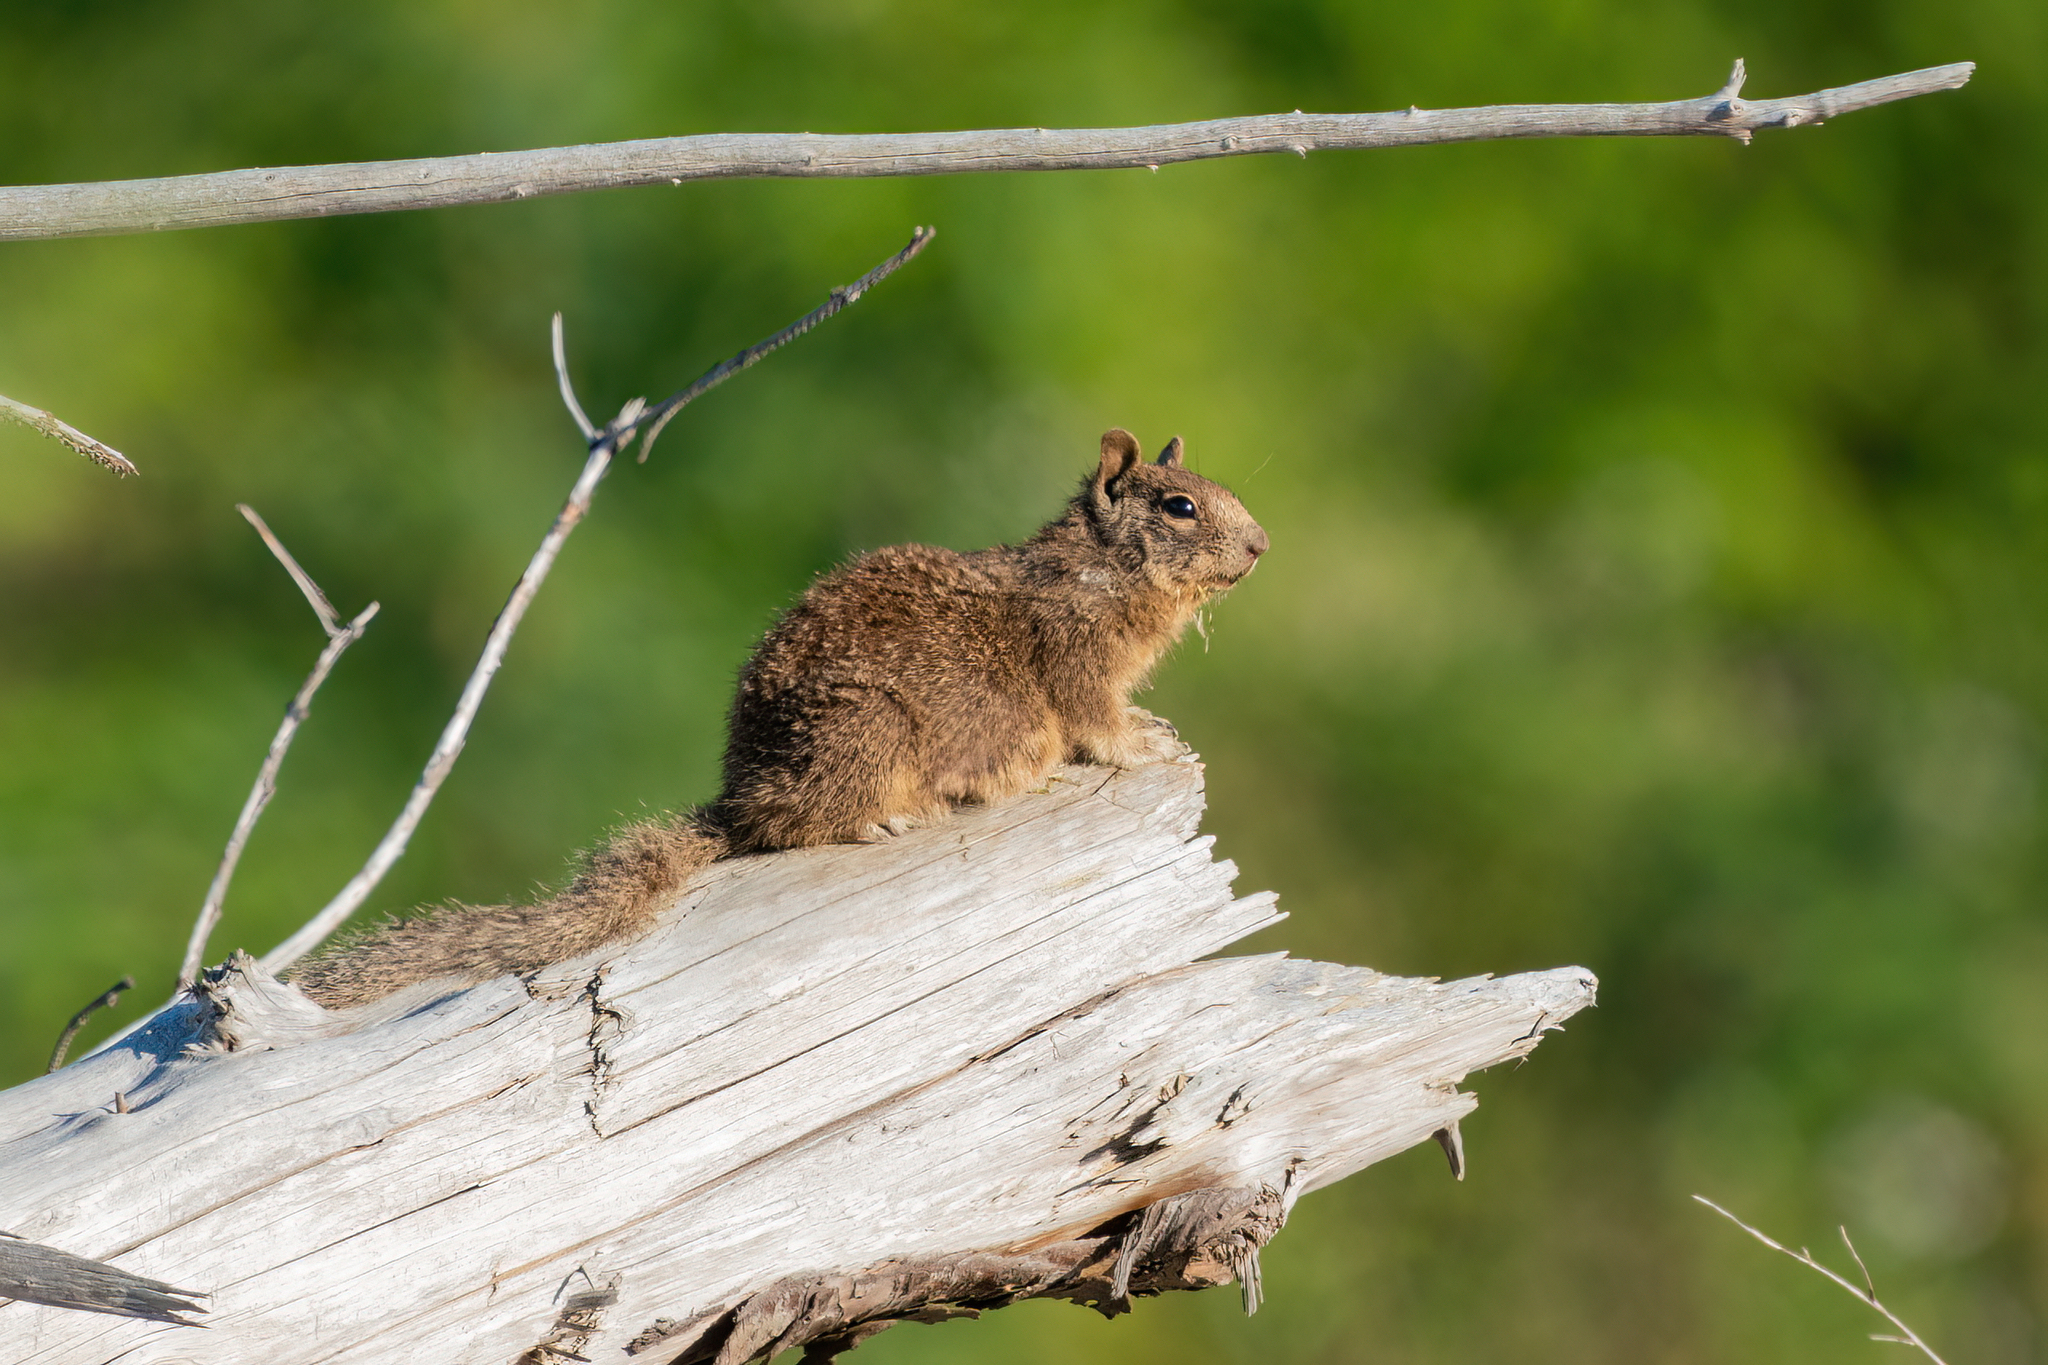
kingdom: Animalia
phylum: Chordata
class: Mammalia
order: Rodentia
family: Sciuridae
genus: Otospermophilus
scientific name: Otospermophilus beecheyi
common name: California ground squirrel
